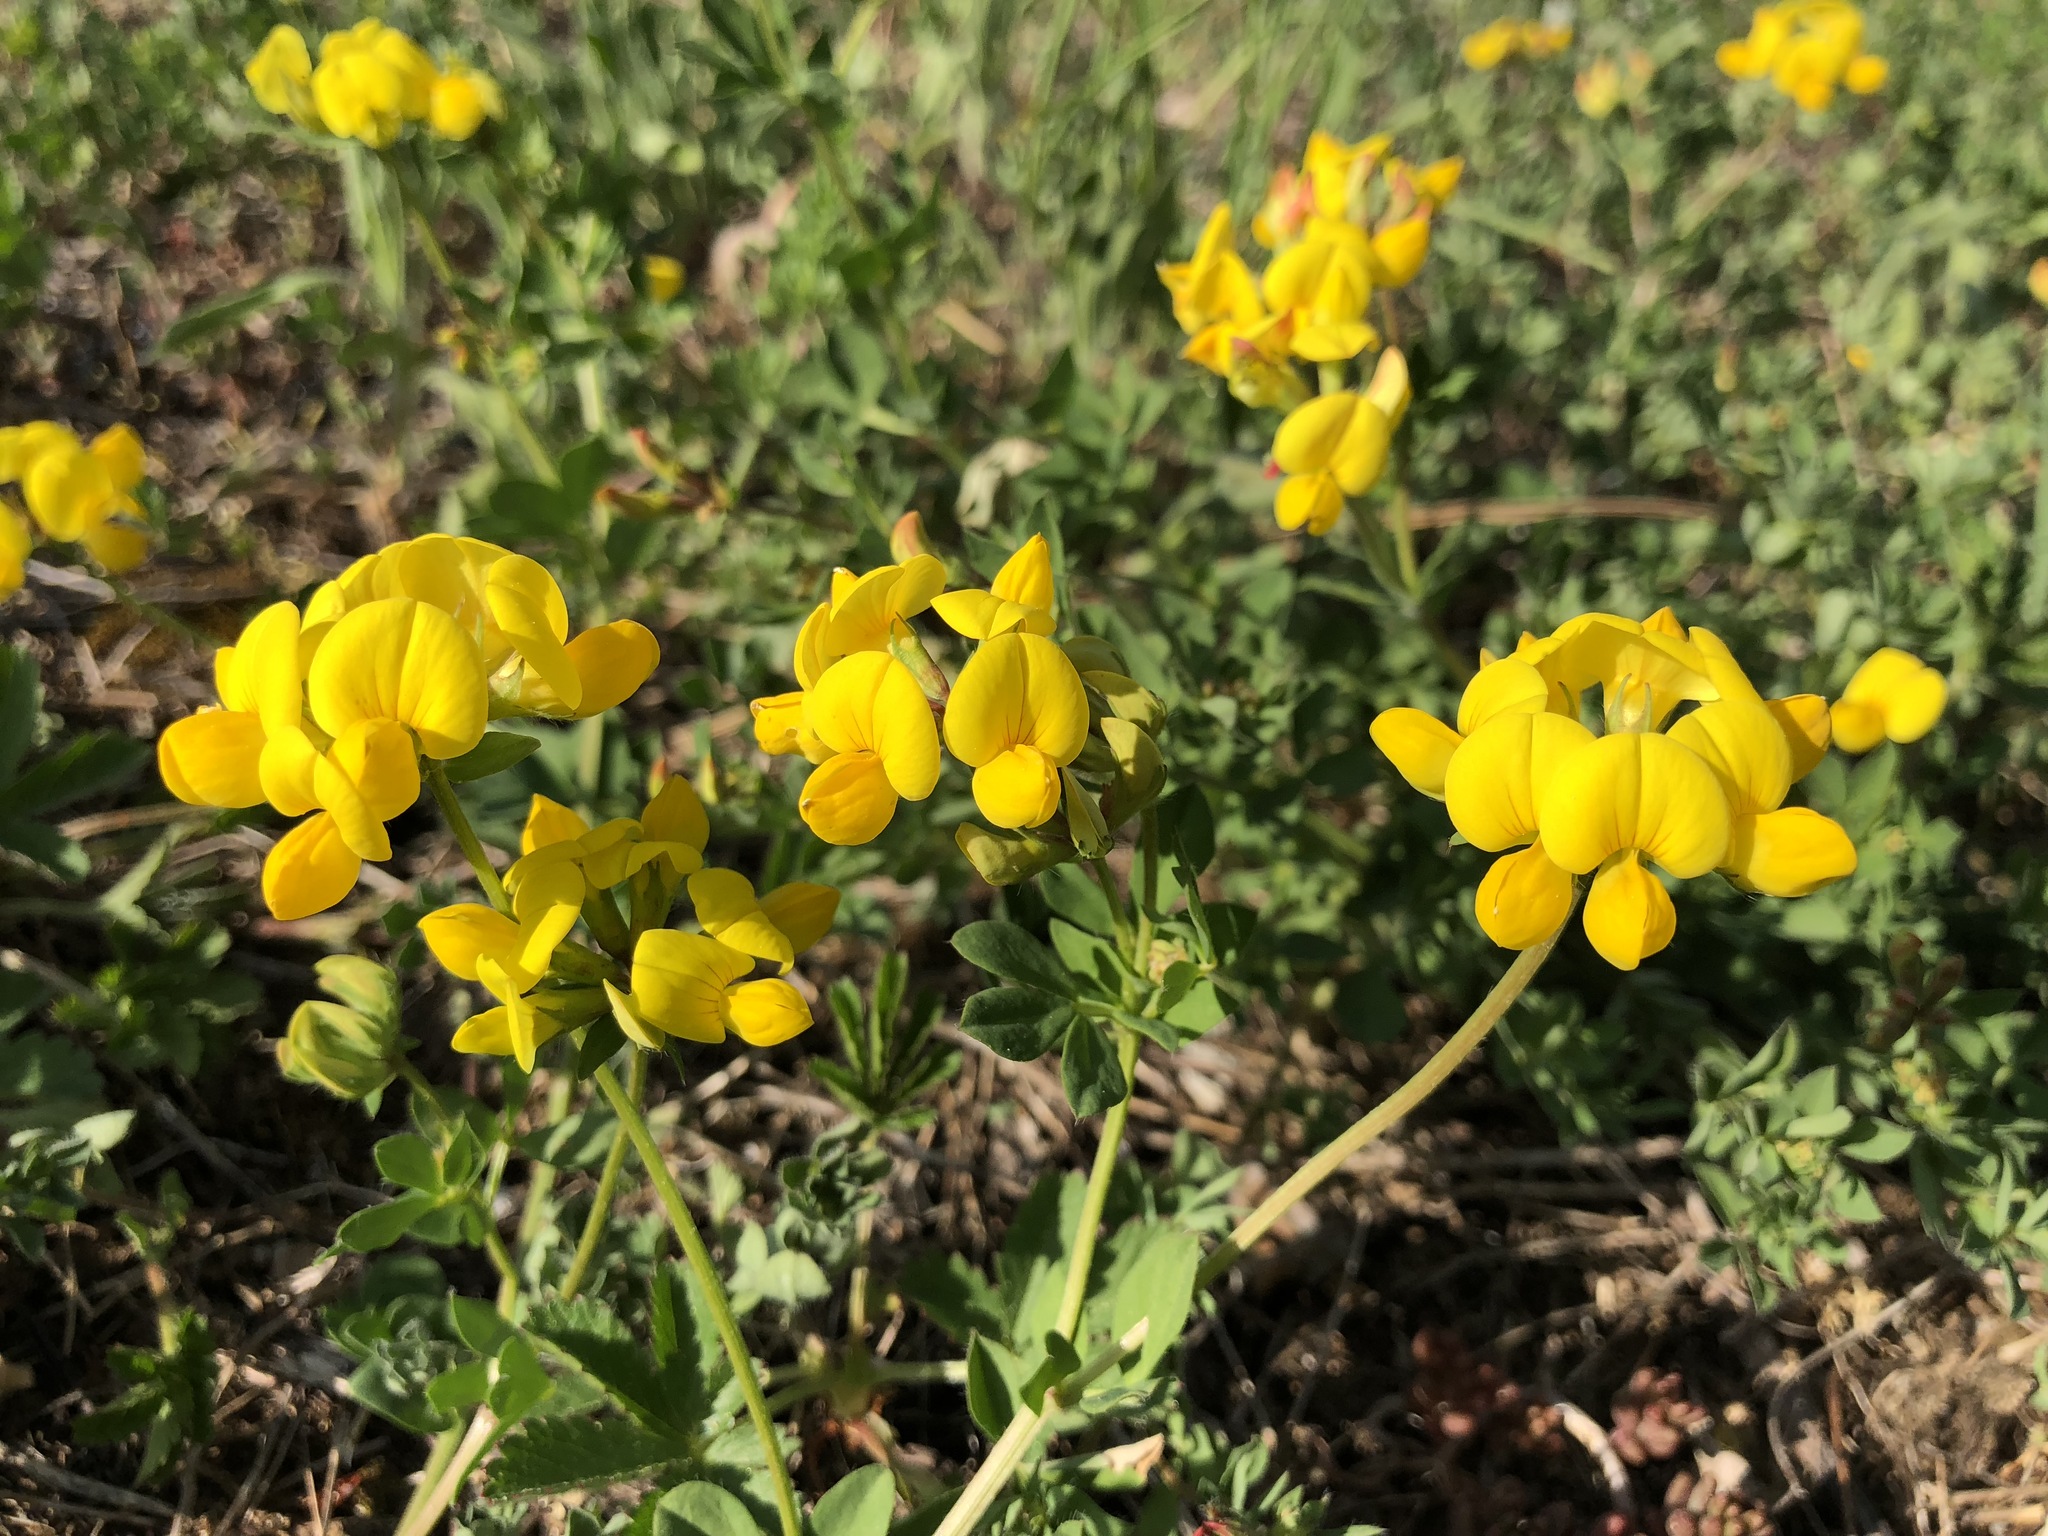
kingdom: Plantae
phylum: Tracheophyta
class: Magnoliopsida
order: Fabales
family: Fabaceae
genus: Lotus
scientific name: Lotus corniculatus
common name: Common bird's-foot-trefoil
